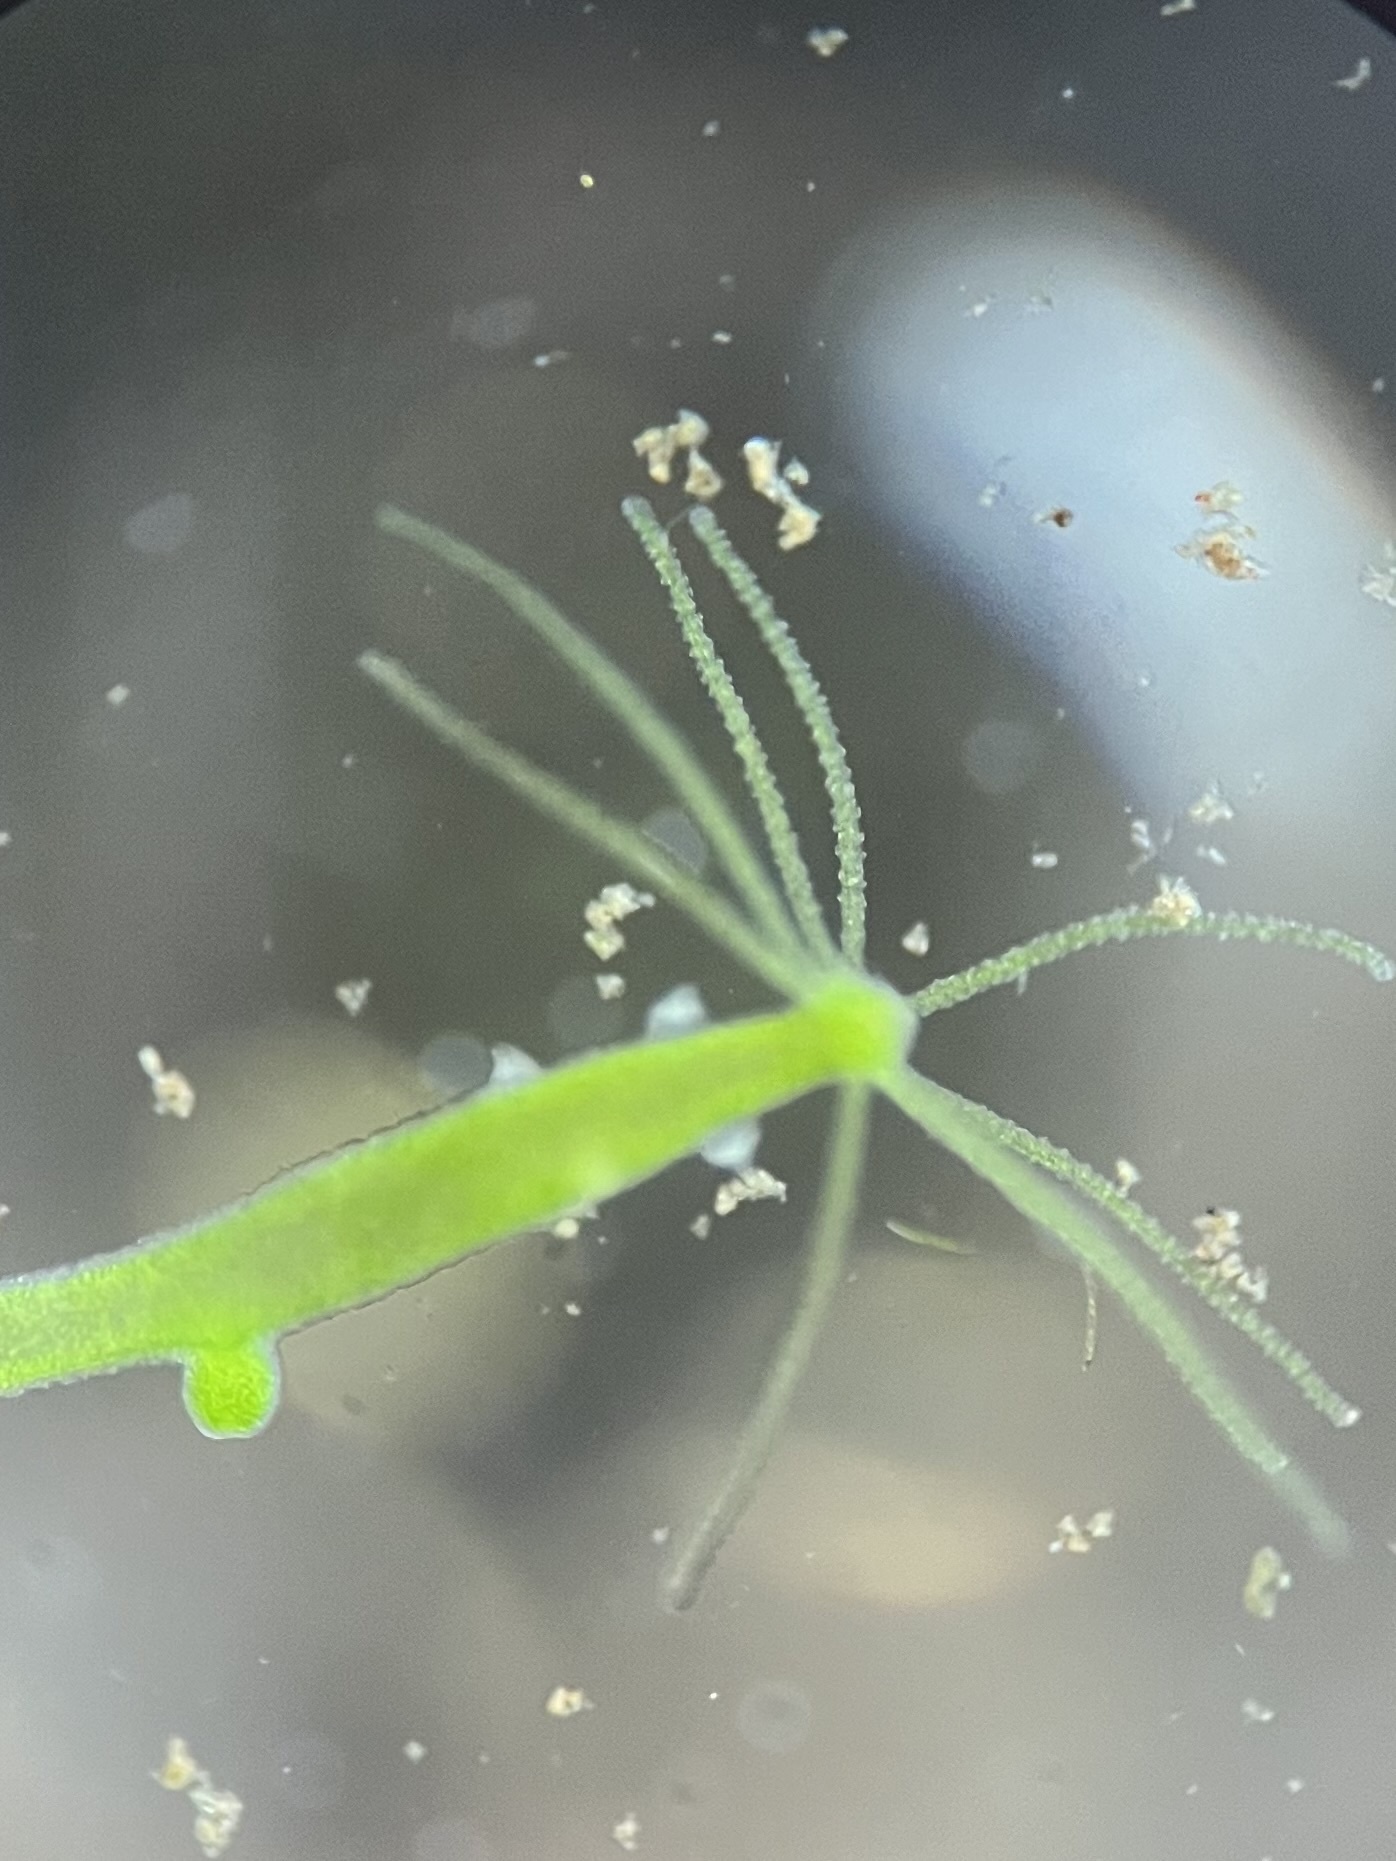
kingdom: Animalia
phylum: Cnidaria
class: Hydrozoa
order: Anthoathecata
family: Hydridae
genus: Hydra
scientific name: Hydra viridissima
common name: Green hydra
